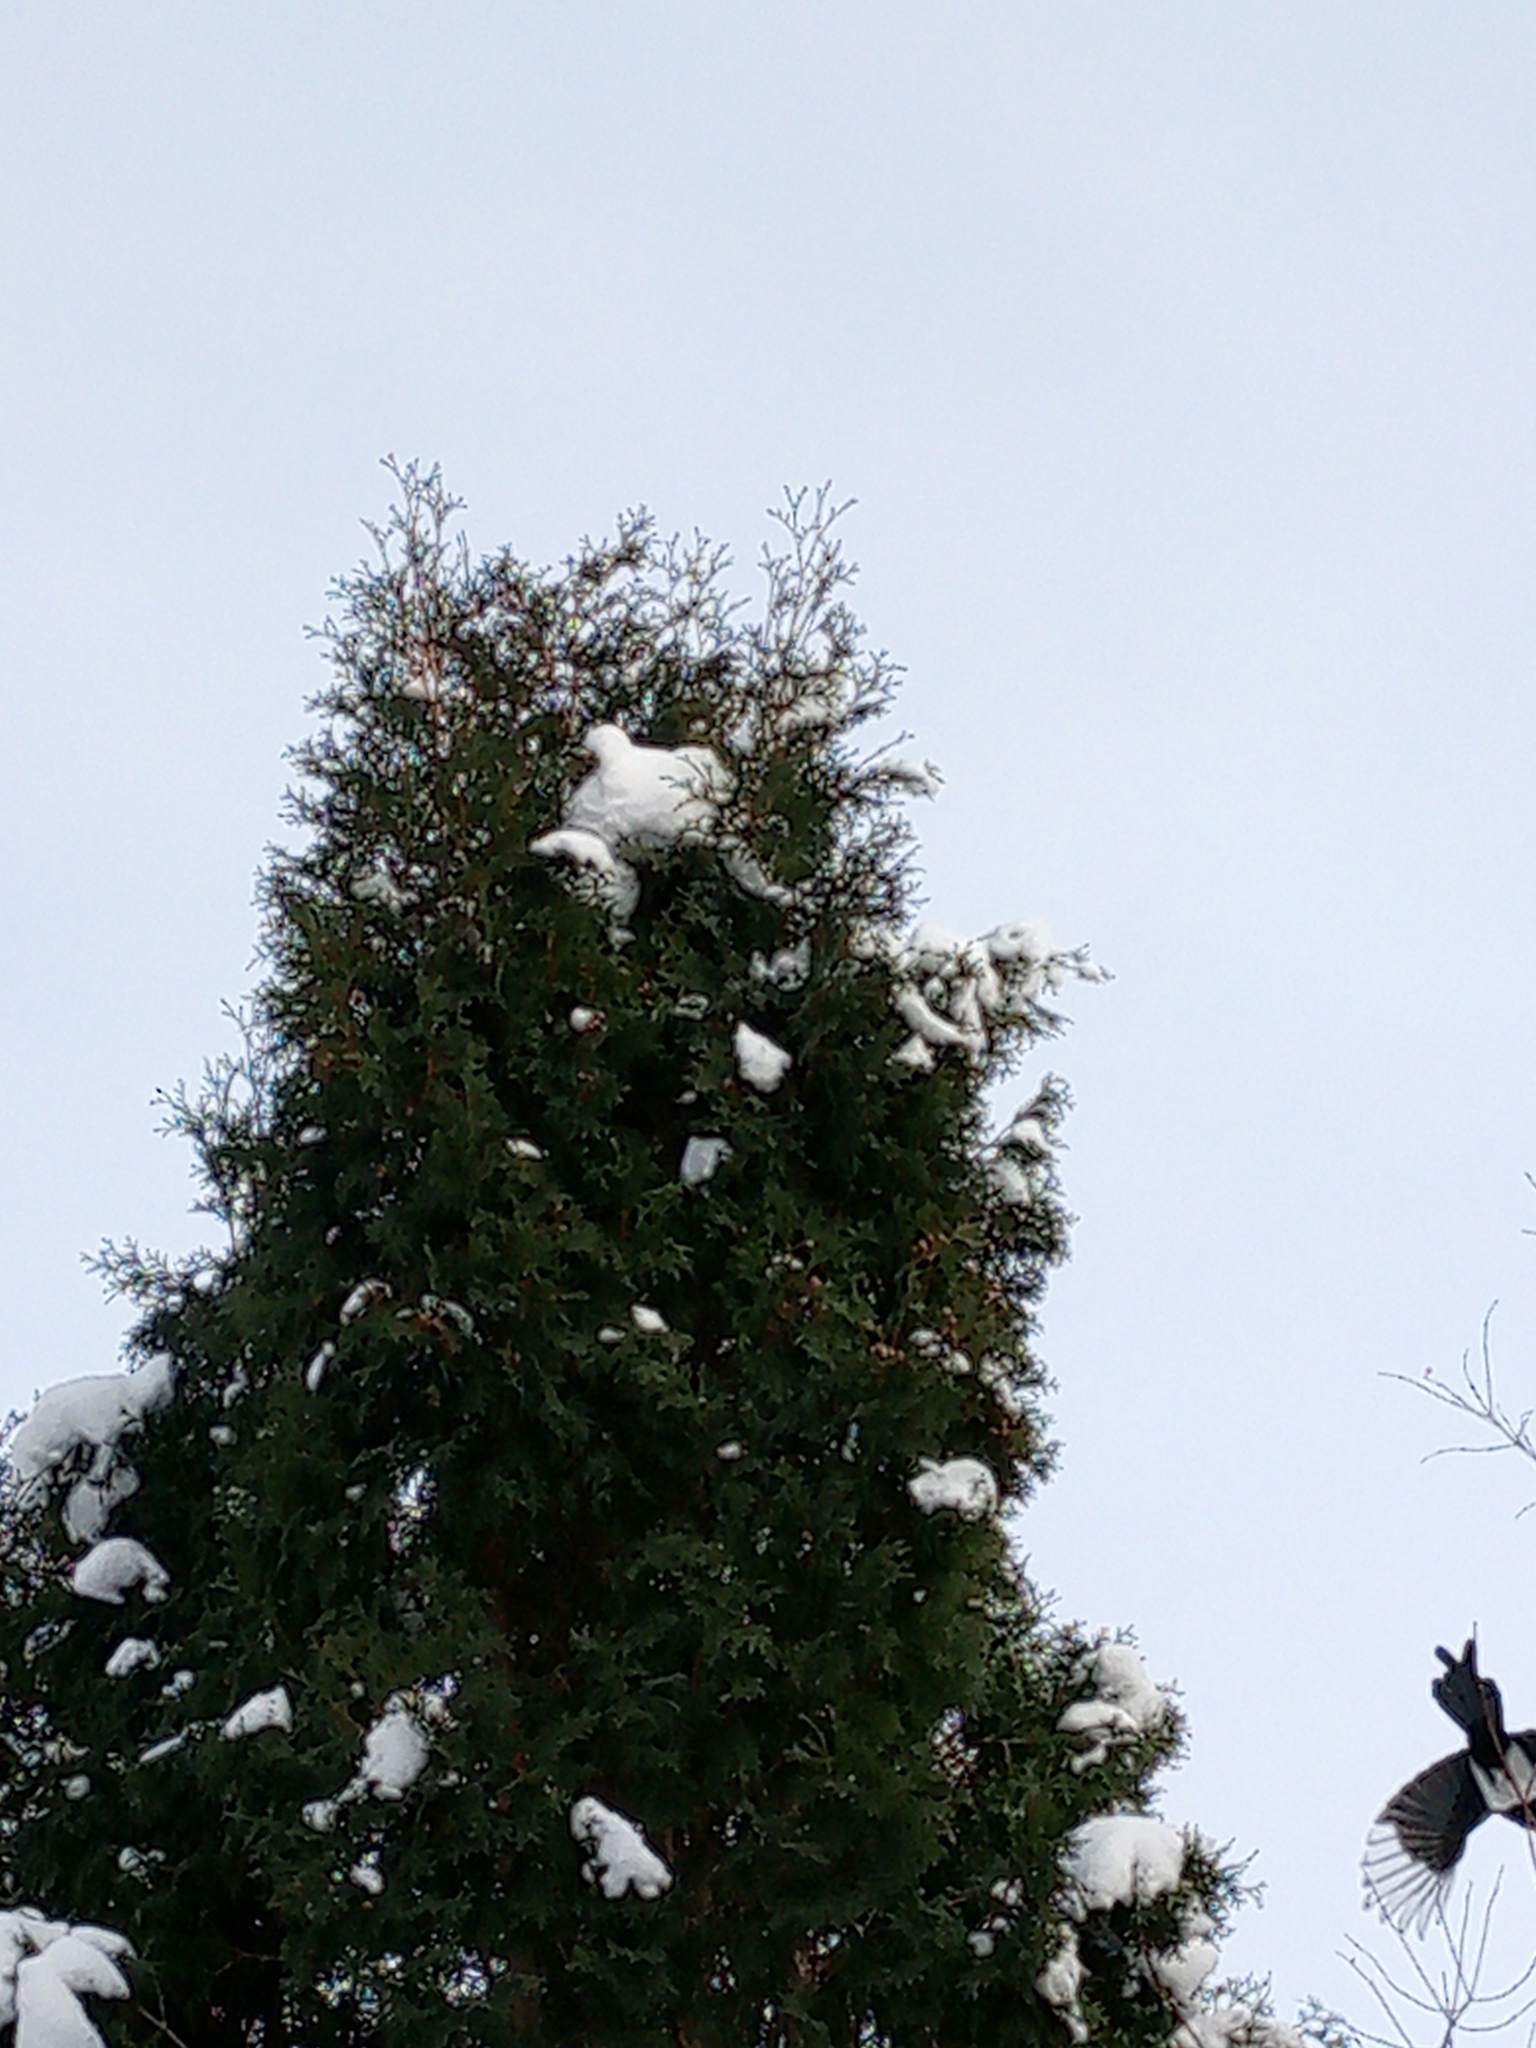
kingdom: Animalia
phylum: Chordata
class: Aves
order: Passeriformes
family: Corvidae
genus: Pica
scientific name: Pica pica
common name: Eurasian magpie
